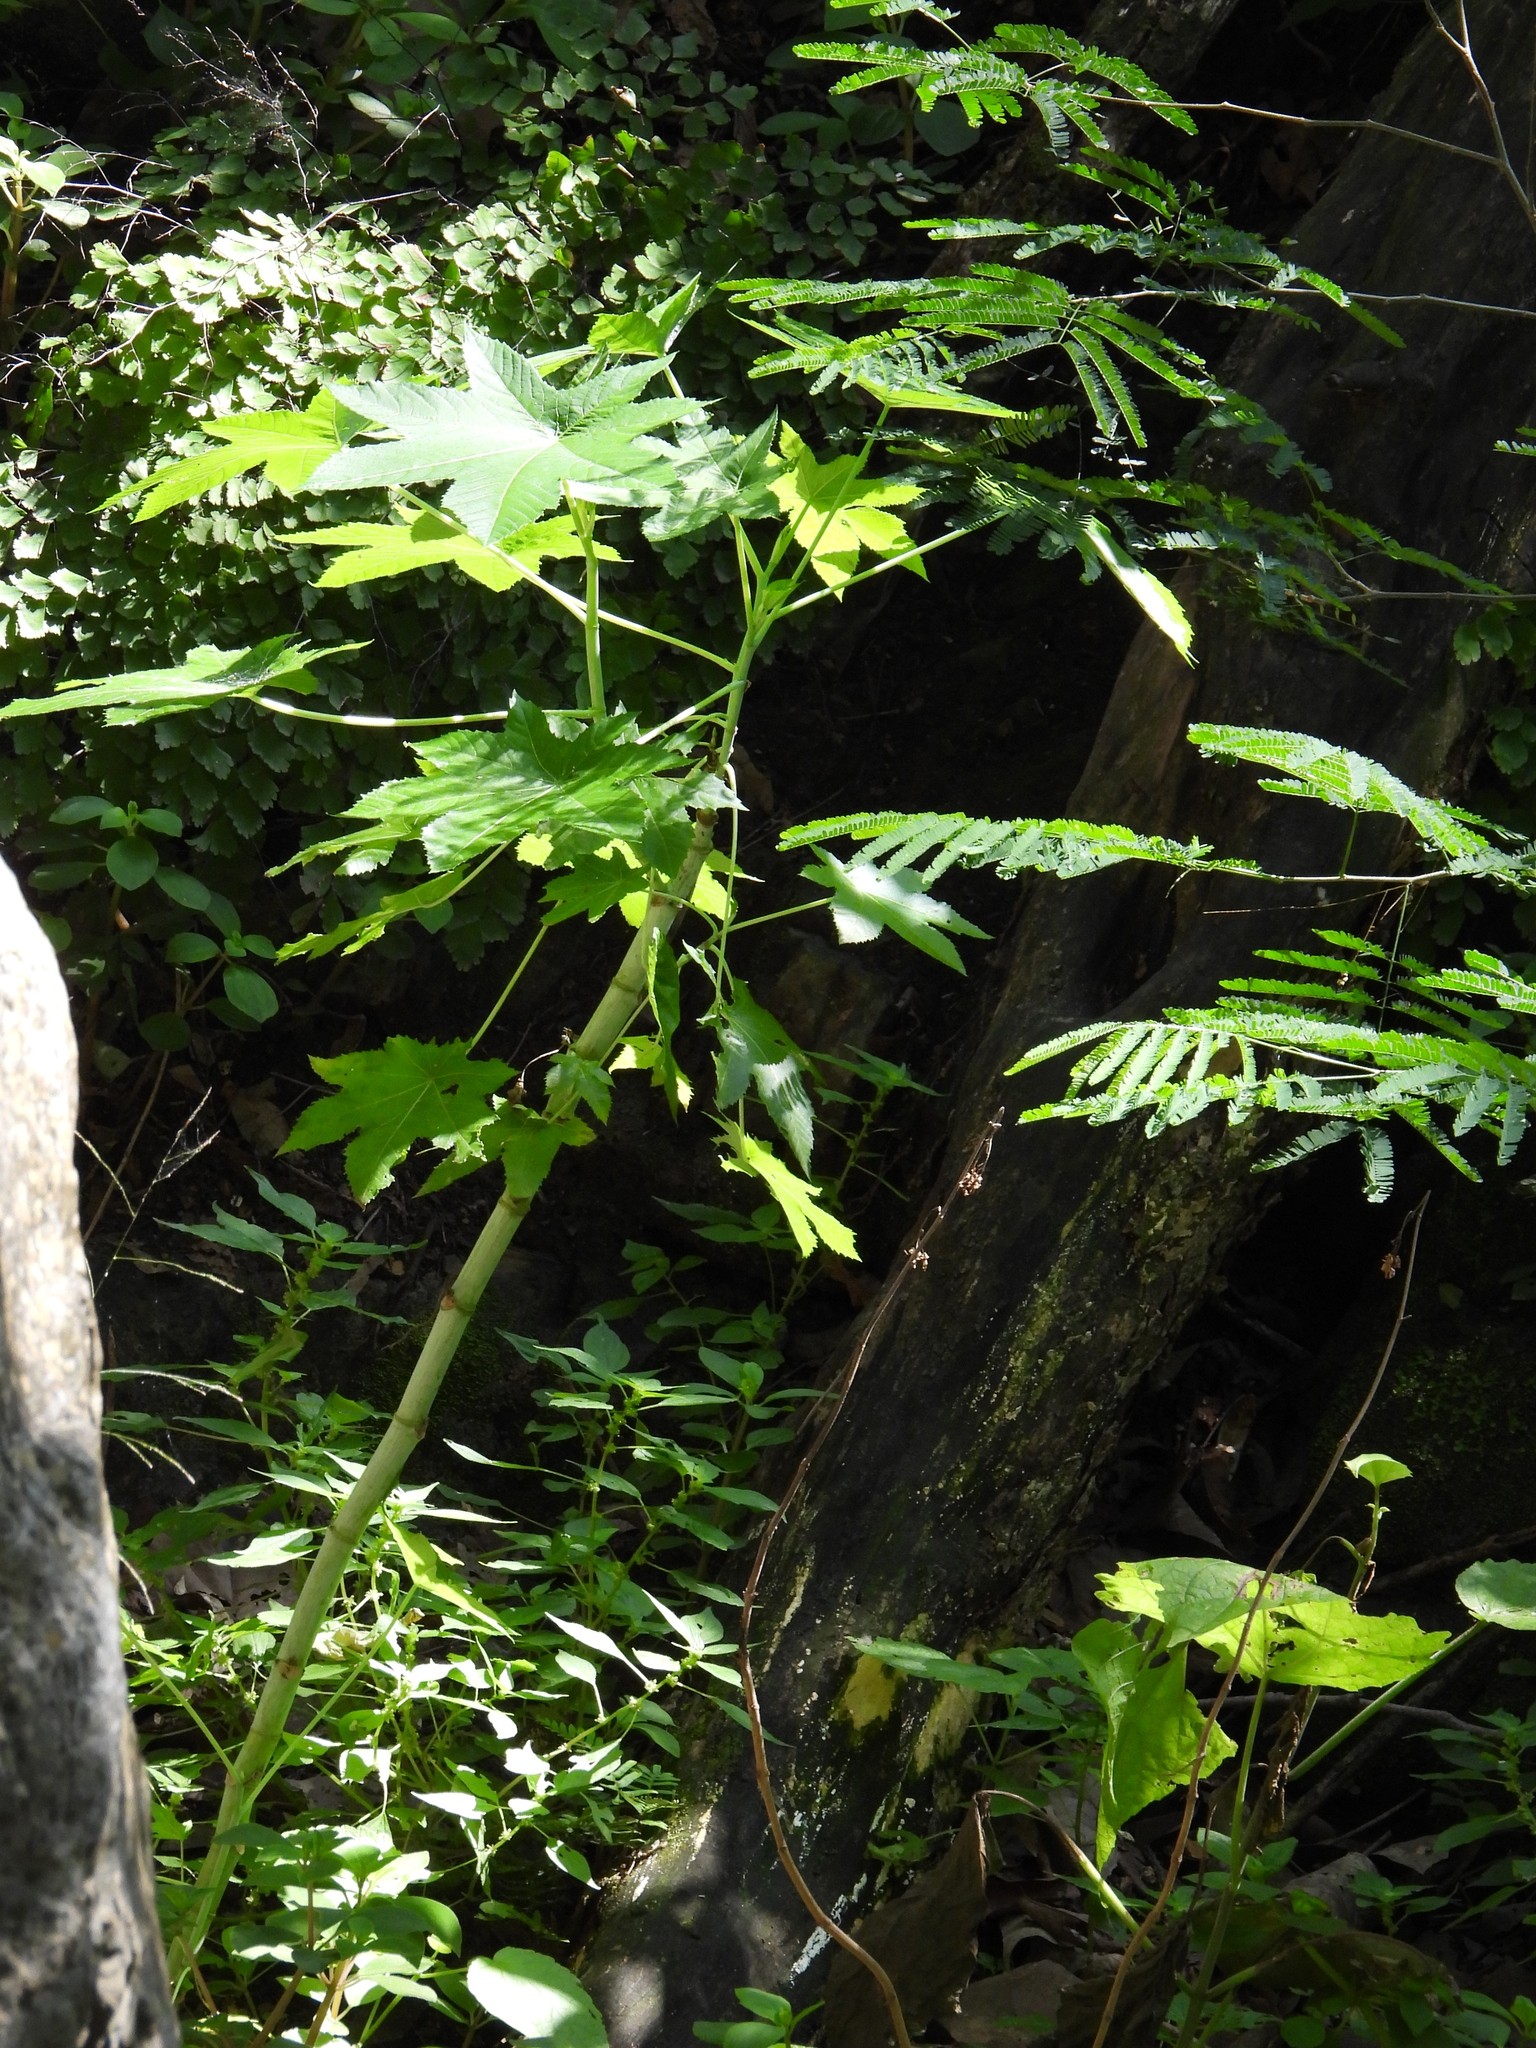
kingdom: Plantae
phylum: Tracheophyta
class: Magnoliopsida
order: Malpighiales
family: Euphorbiaceae
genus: Ricinus
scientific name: Ricinus communis
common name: Castor-oil-plant
